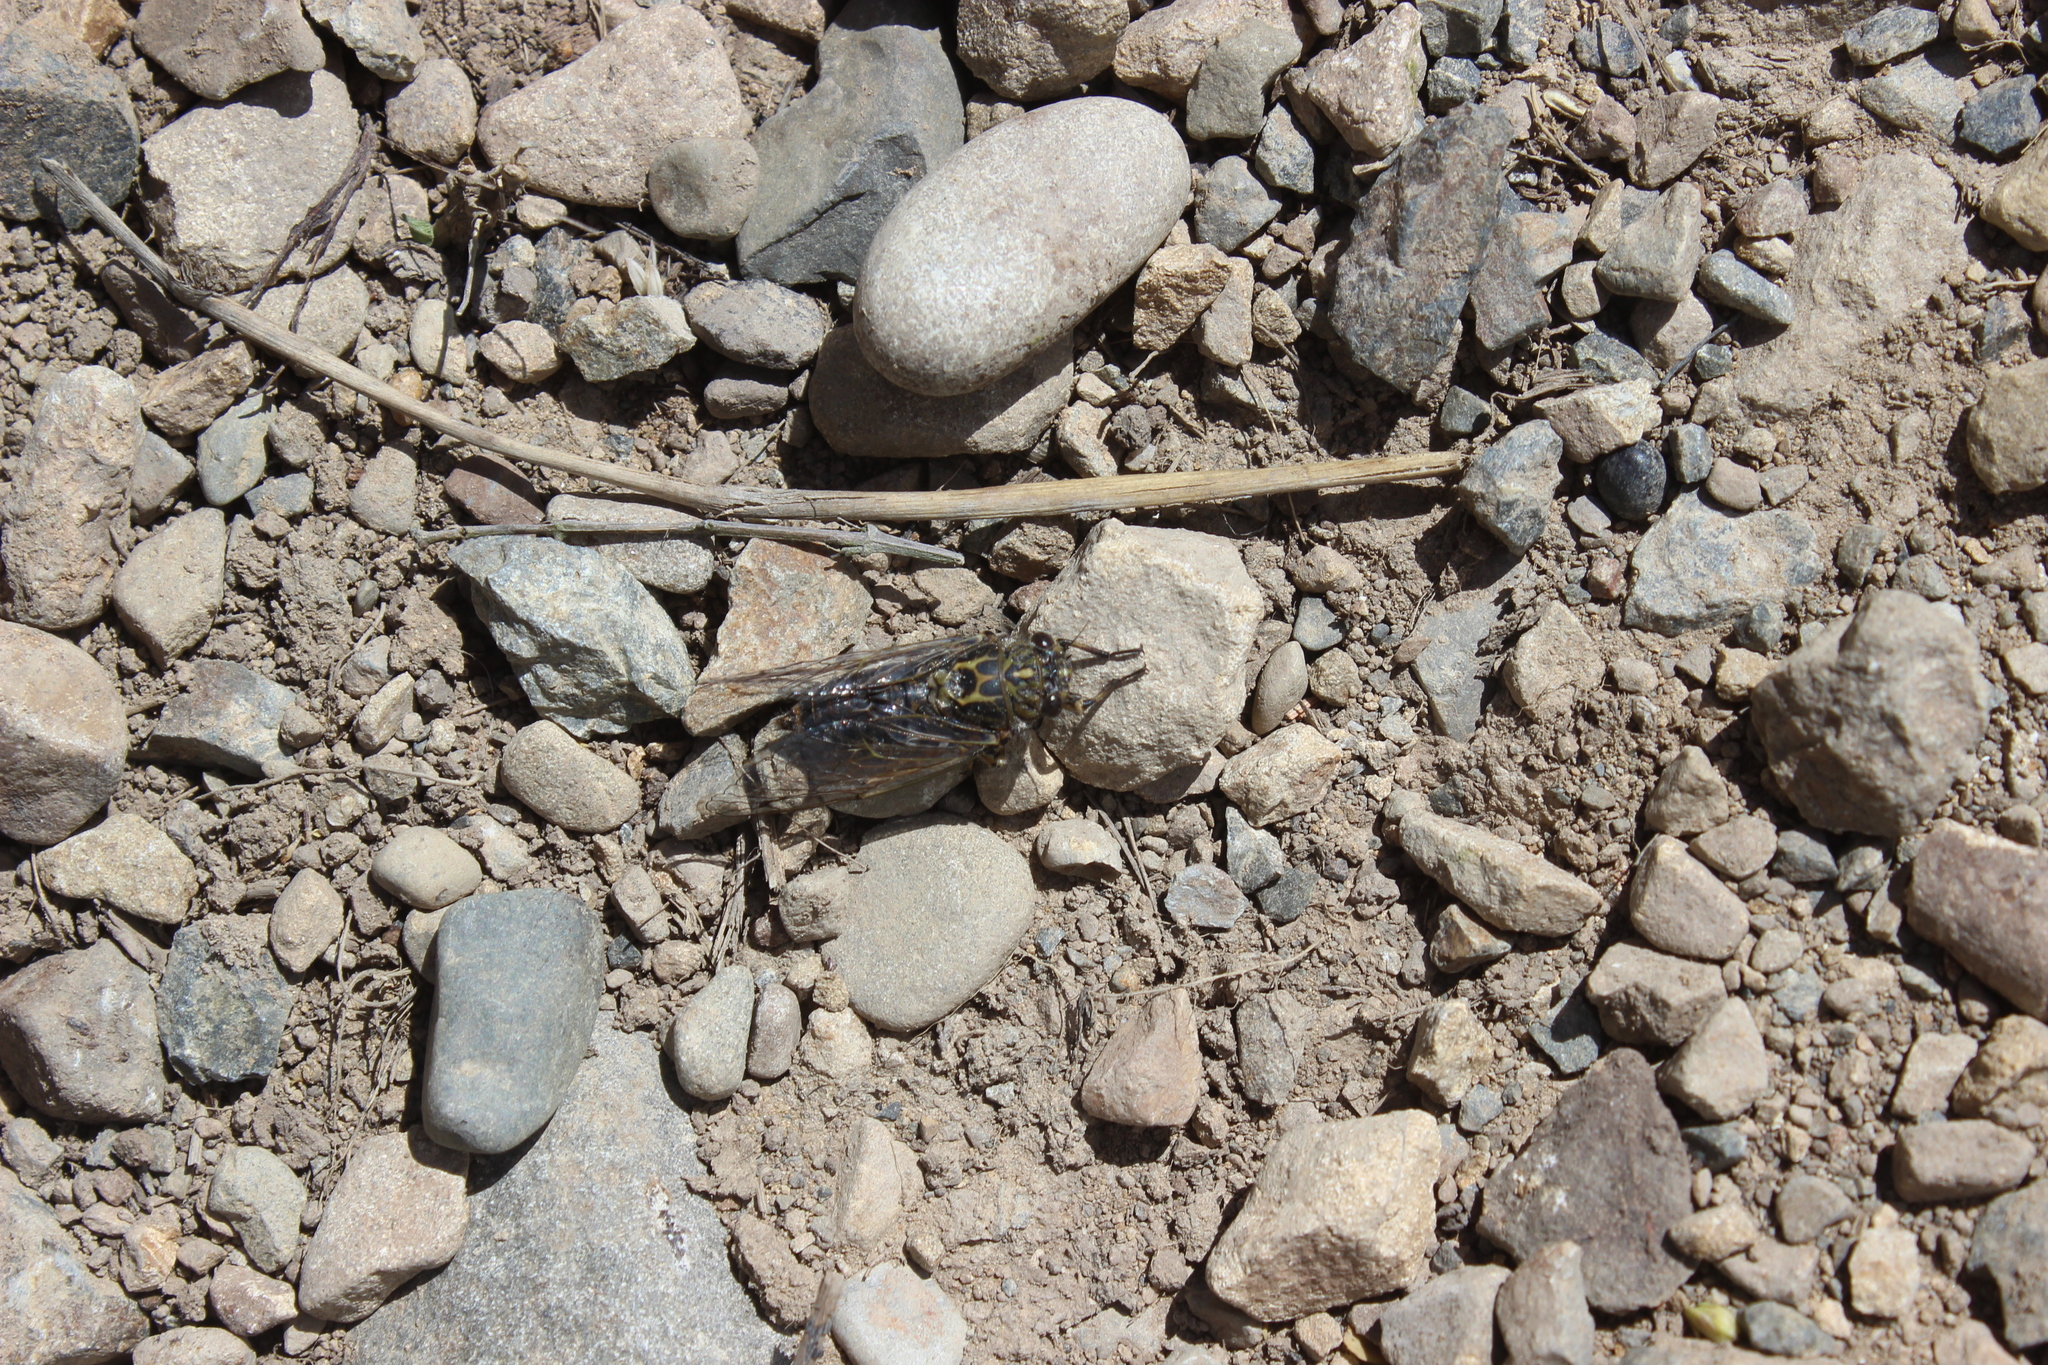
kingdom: Animalia
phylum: Arthropoda
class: Insecta
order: Hemiptera
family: Cicadidae
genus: Amphipsalta
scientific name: Amphipsalta strepitans
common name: Chirping cicada
